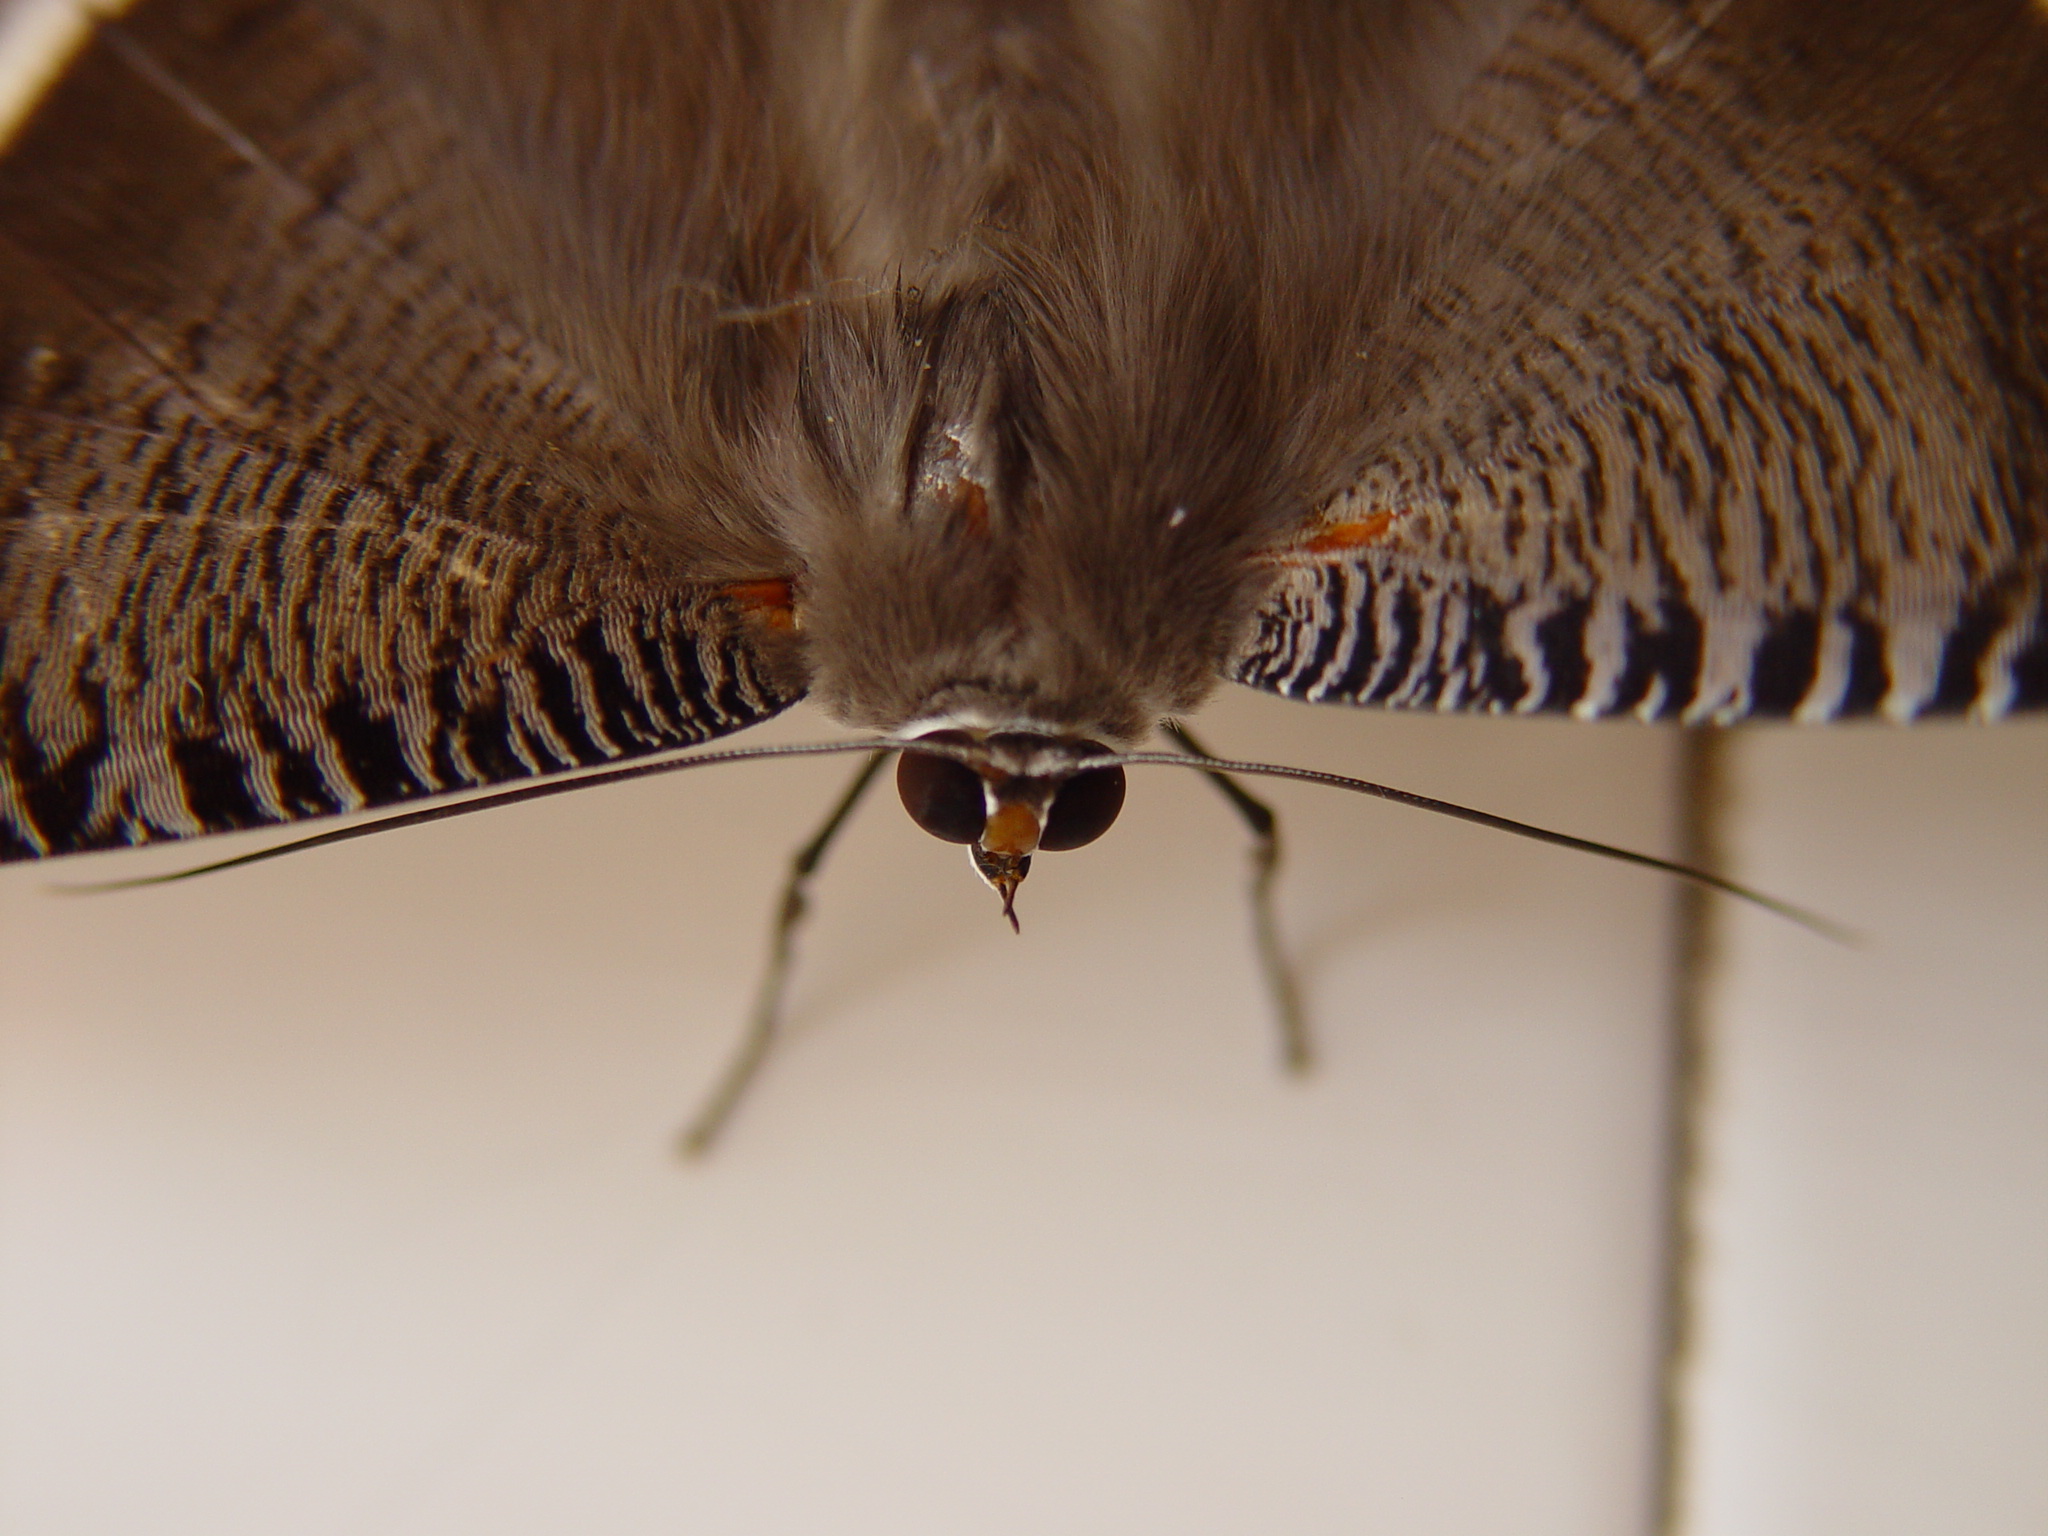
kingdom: Animalia
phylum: Arthropoda
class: Insecta
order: Lepidoptera
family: Uraniidae
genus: Lyssa
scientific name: Lyssa zampa
